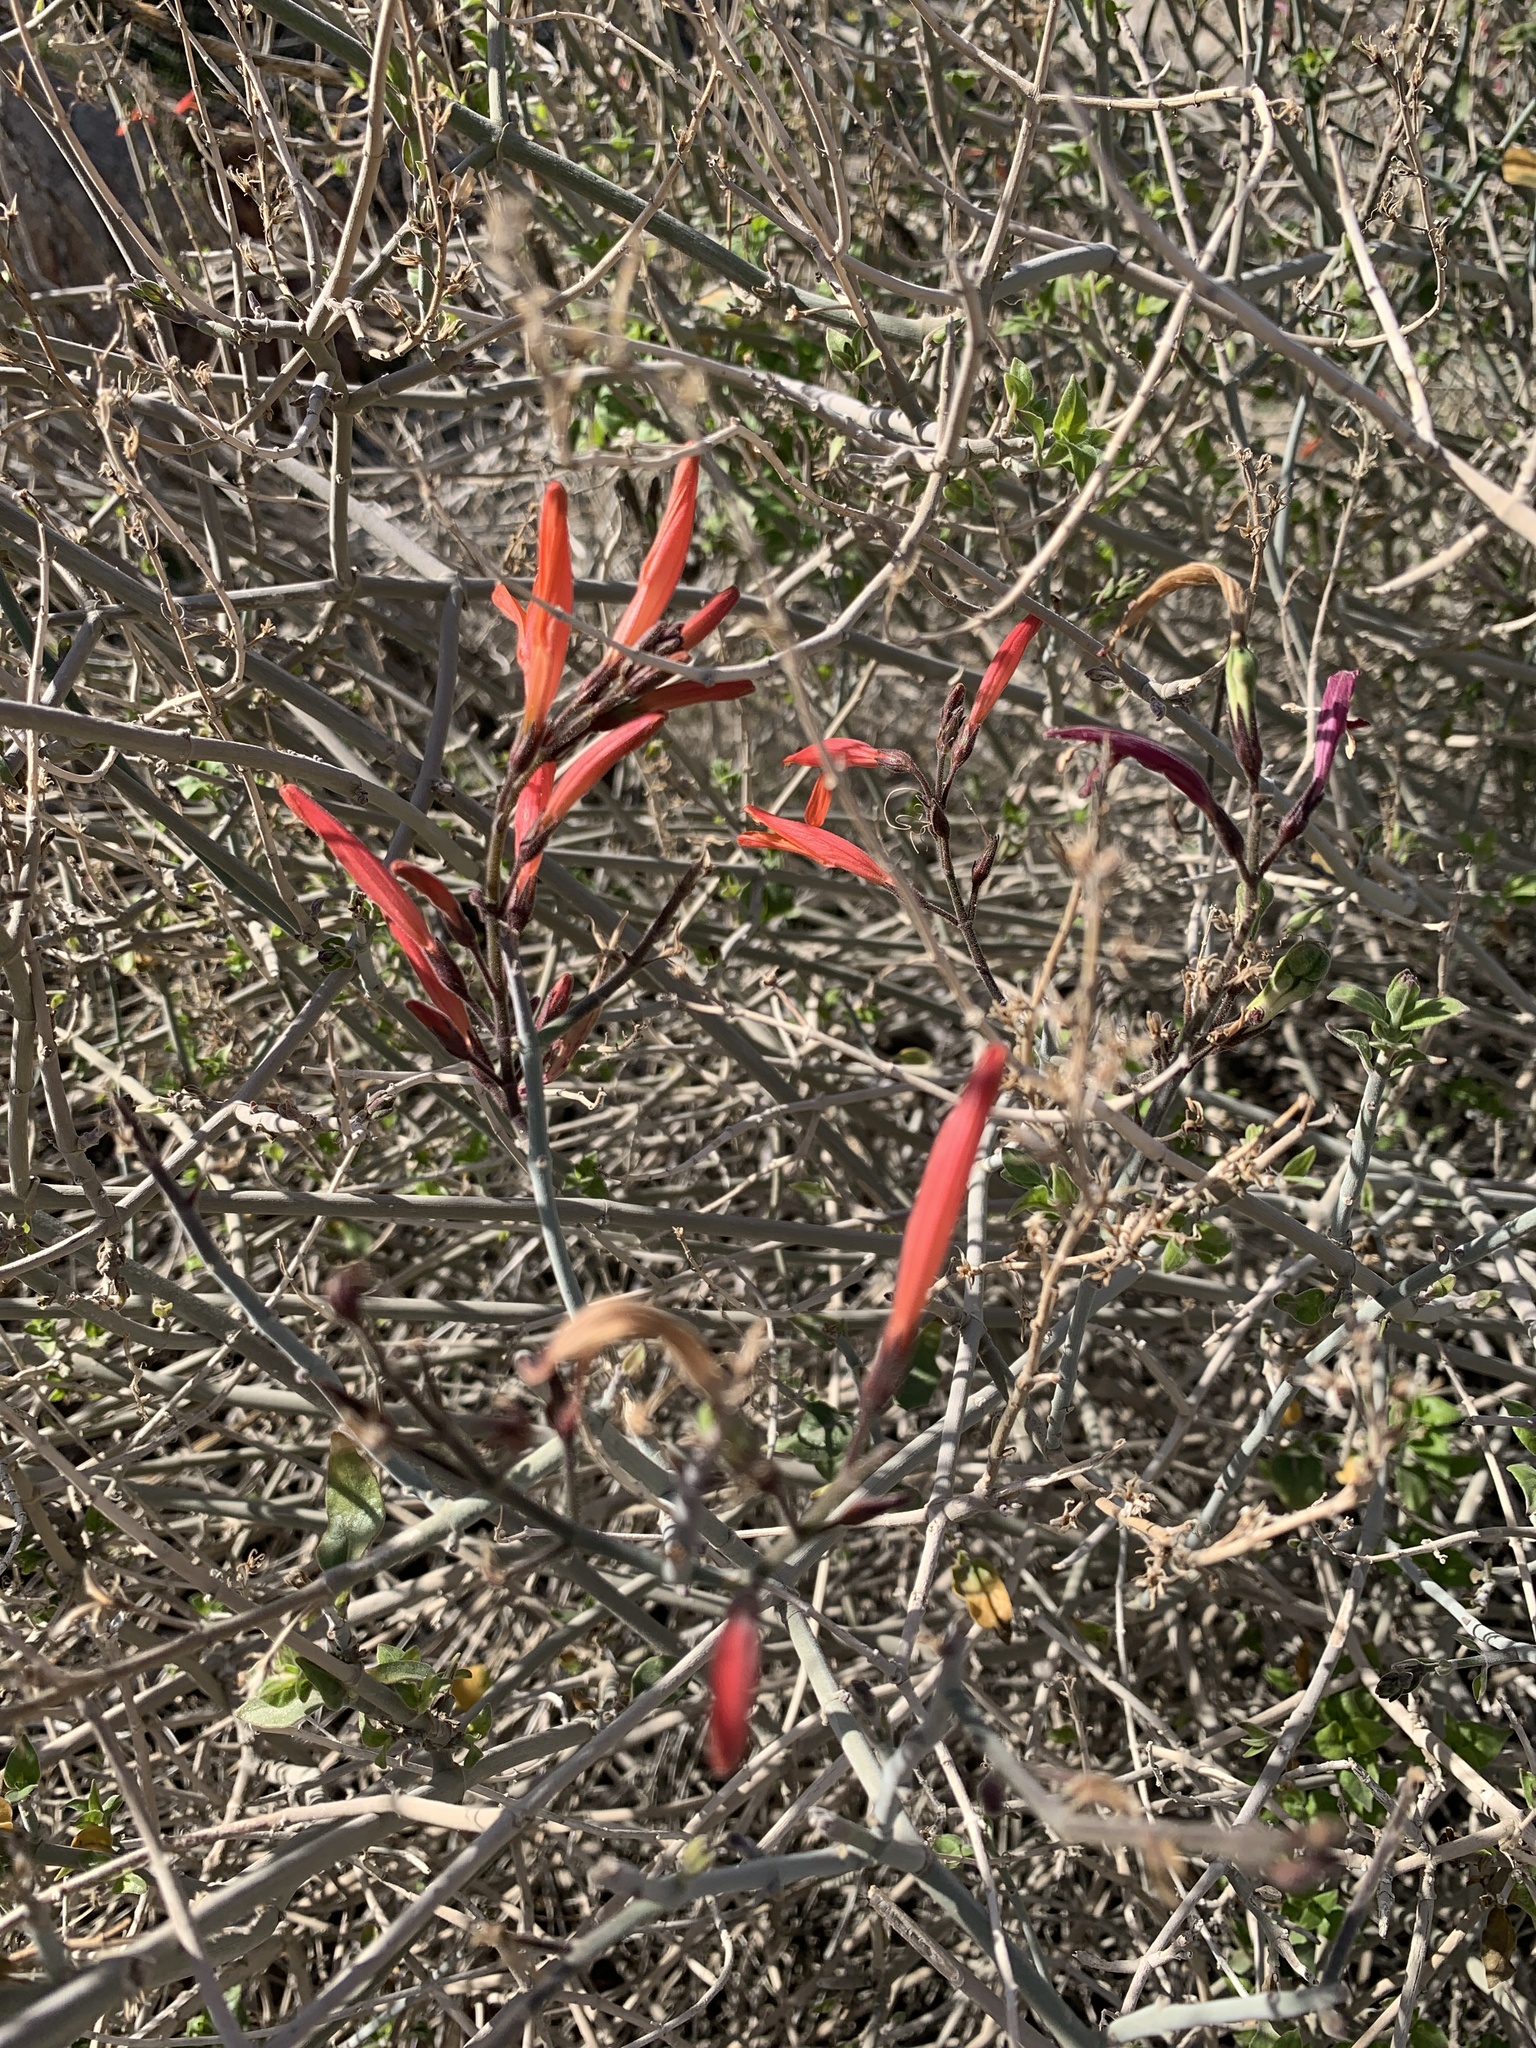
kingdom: Plantae
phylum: Tracheophyta
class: Magnoliopsida
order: Lamiales
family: Acanthaceae
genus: Justicia
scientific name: Justicia californica
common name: Chuparosa-honeysuckle
